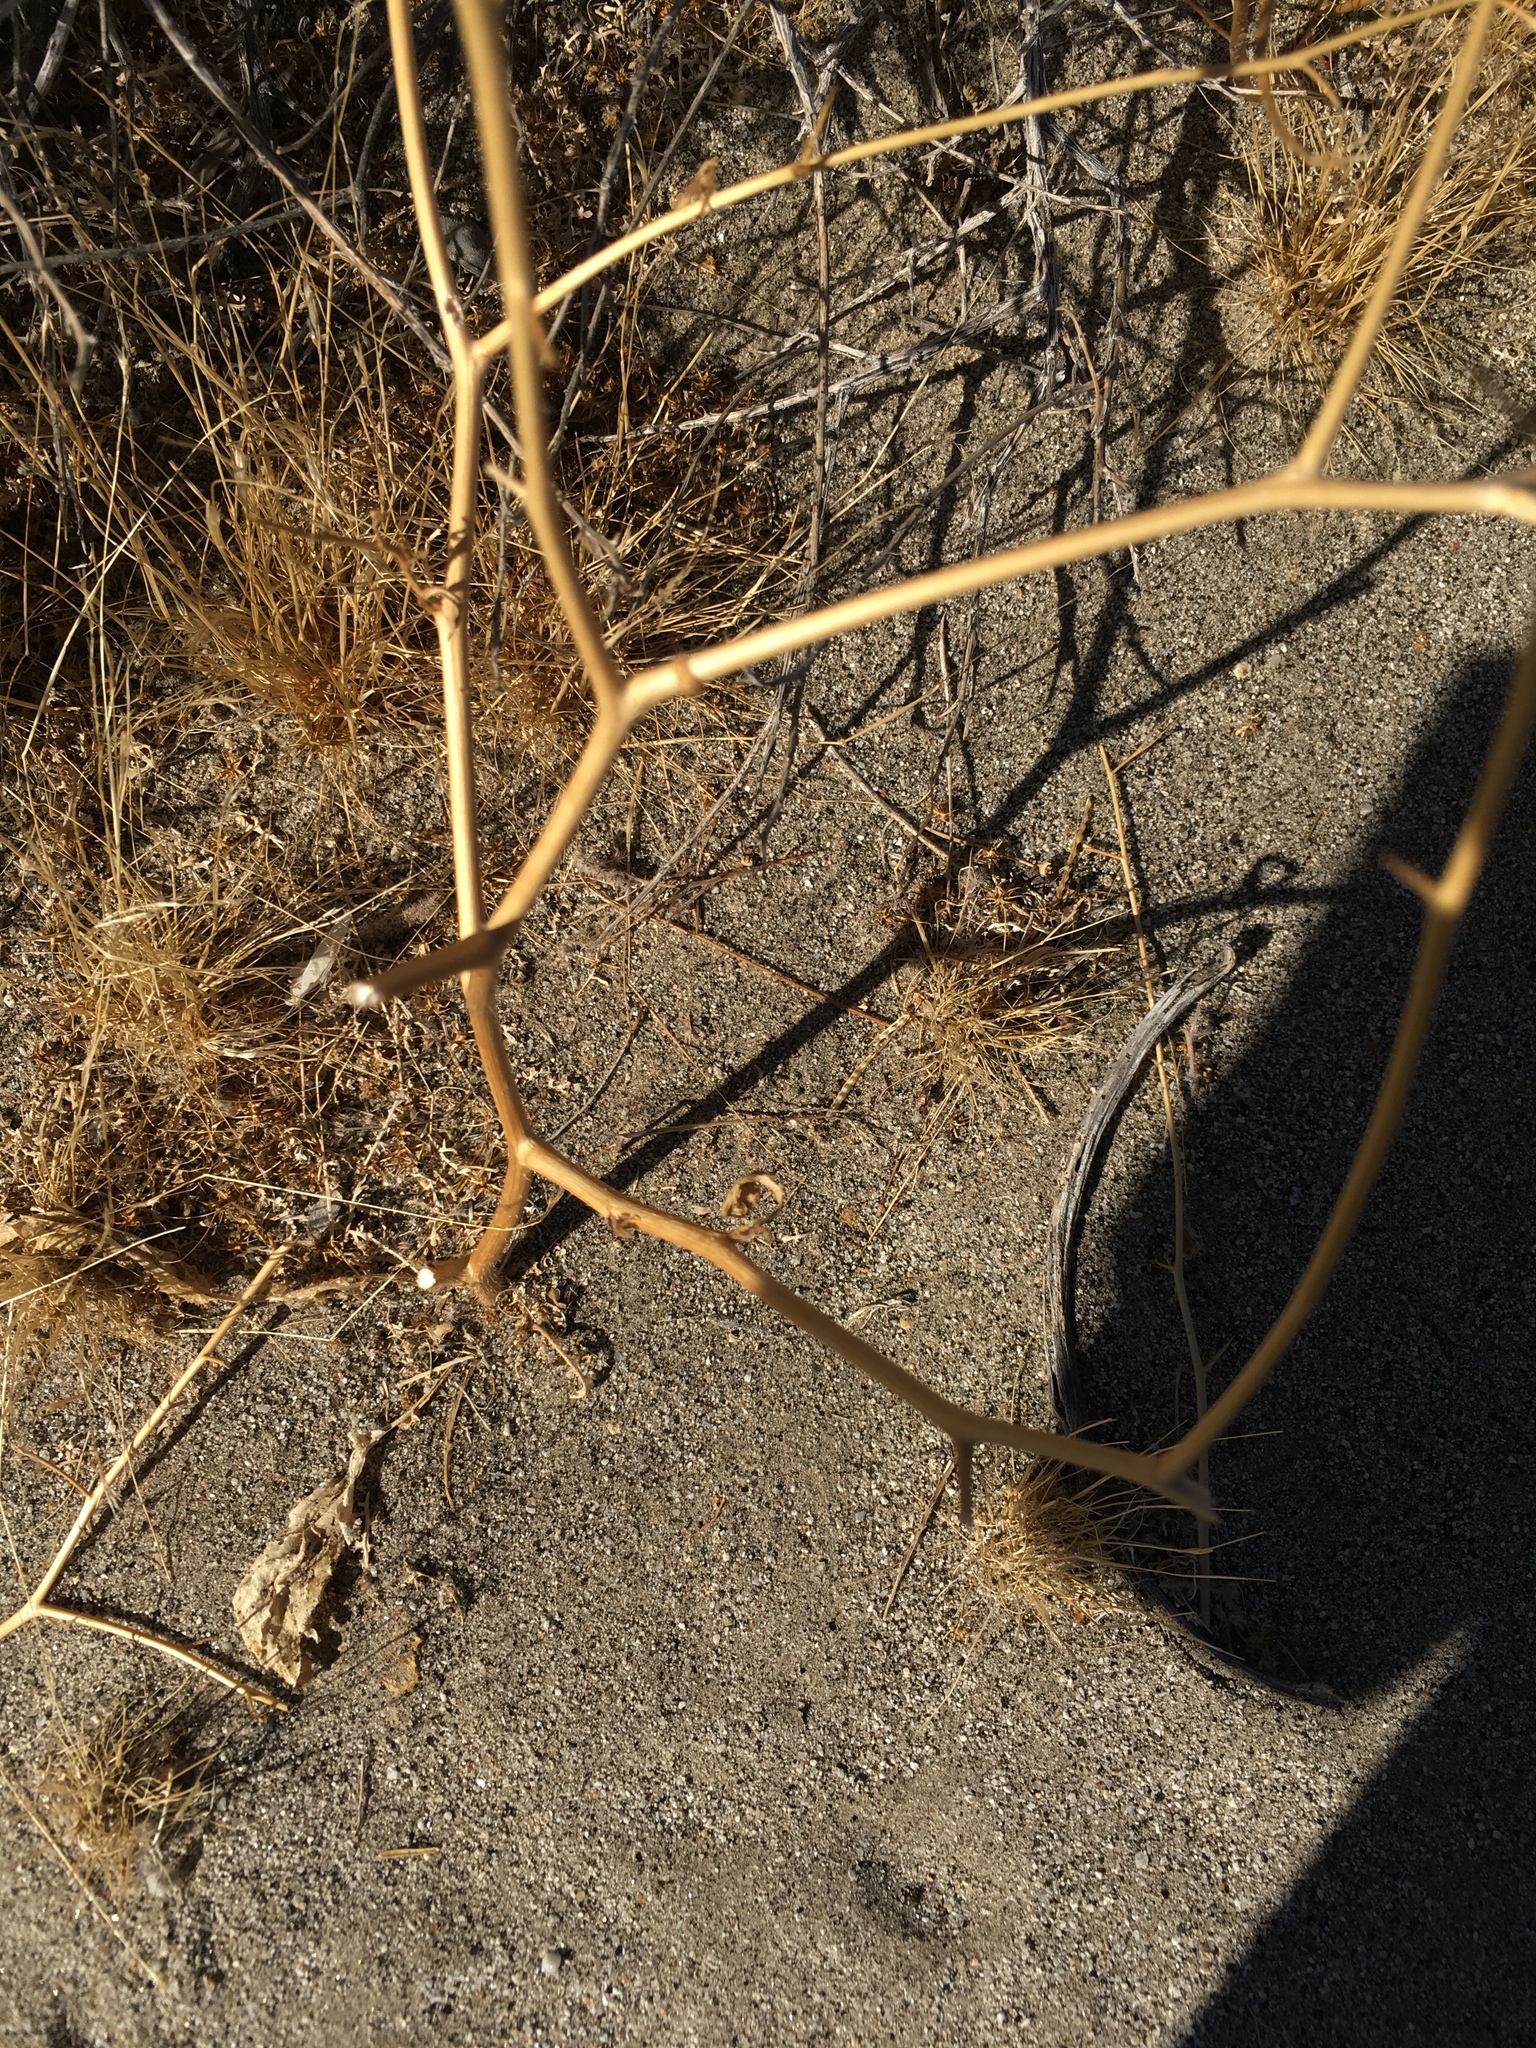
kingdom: Plantae
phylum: Tracheophyta
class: Magnoliopsida
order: Brassicales
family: Brassicaceae
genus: Brassica
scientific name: Brassica tournefortii
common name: Pale cabbage
